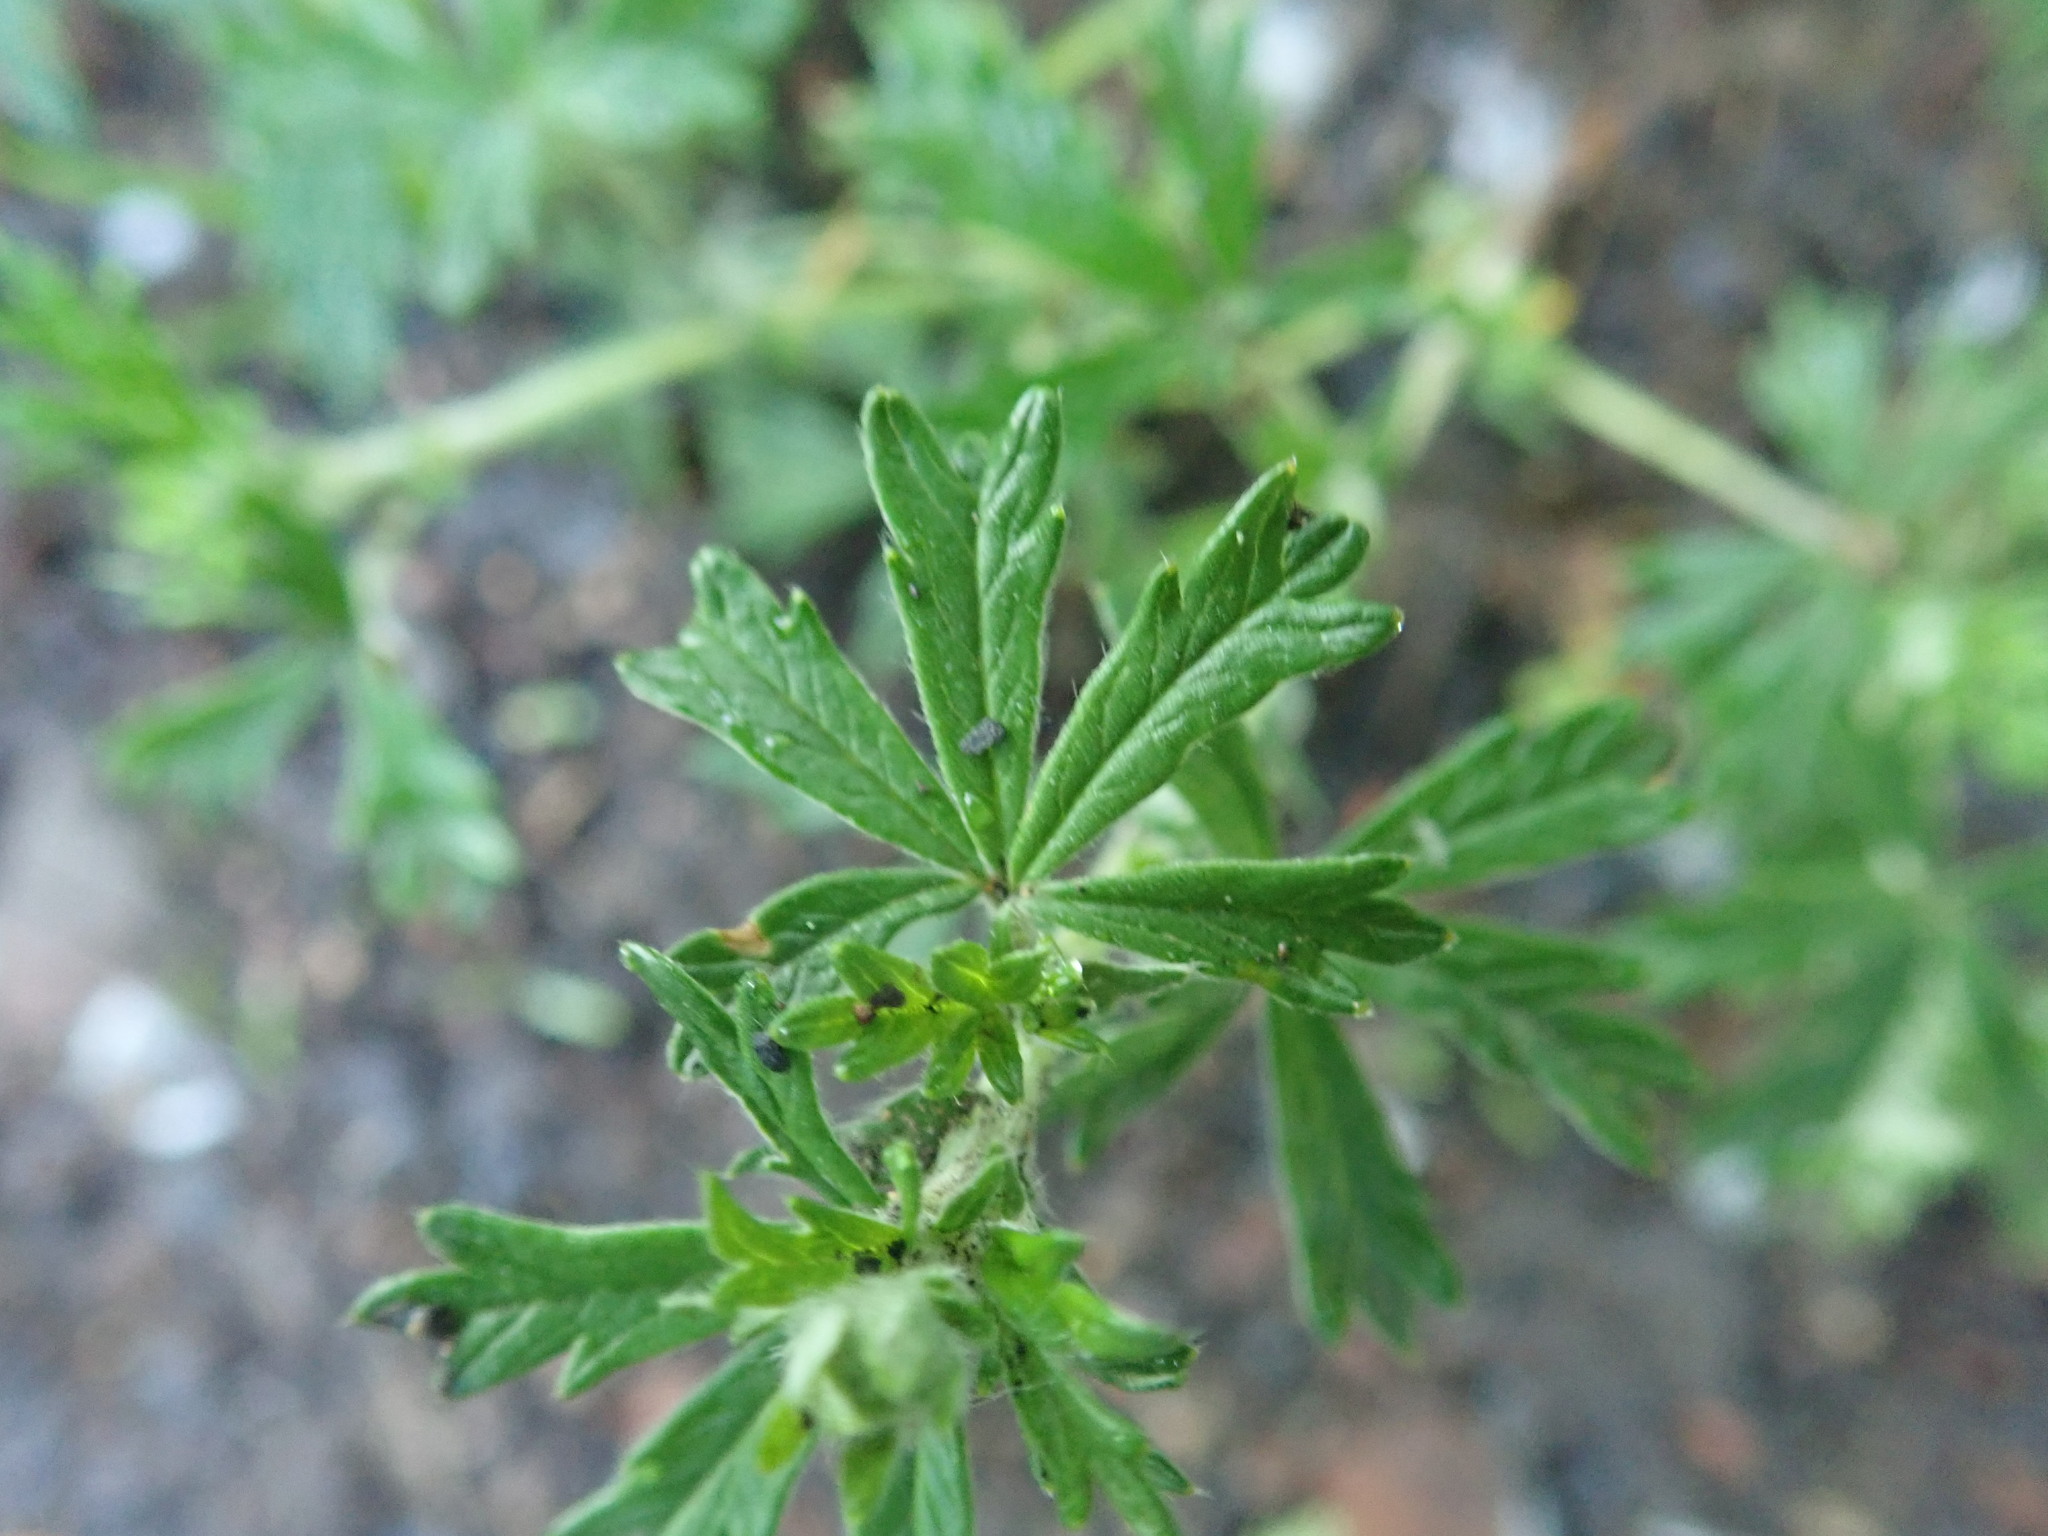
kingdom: Plantae
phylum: Tracheophyta
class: Magnoliopsida
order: Rosales
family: Rosaceae
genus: Potentilla
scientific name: Potentilla argentea
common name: Hoary cinquefoil
